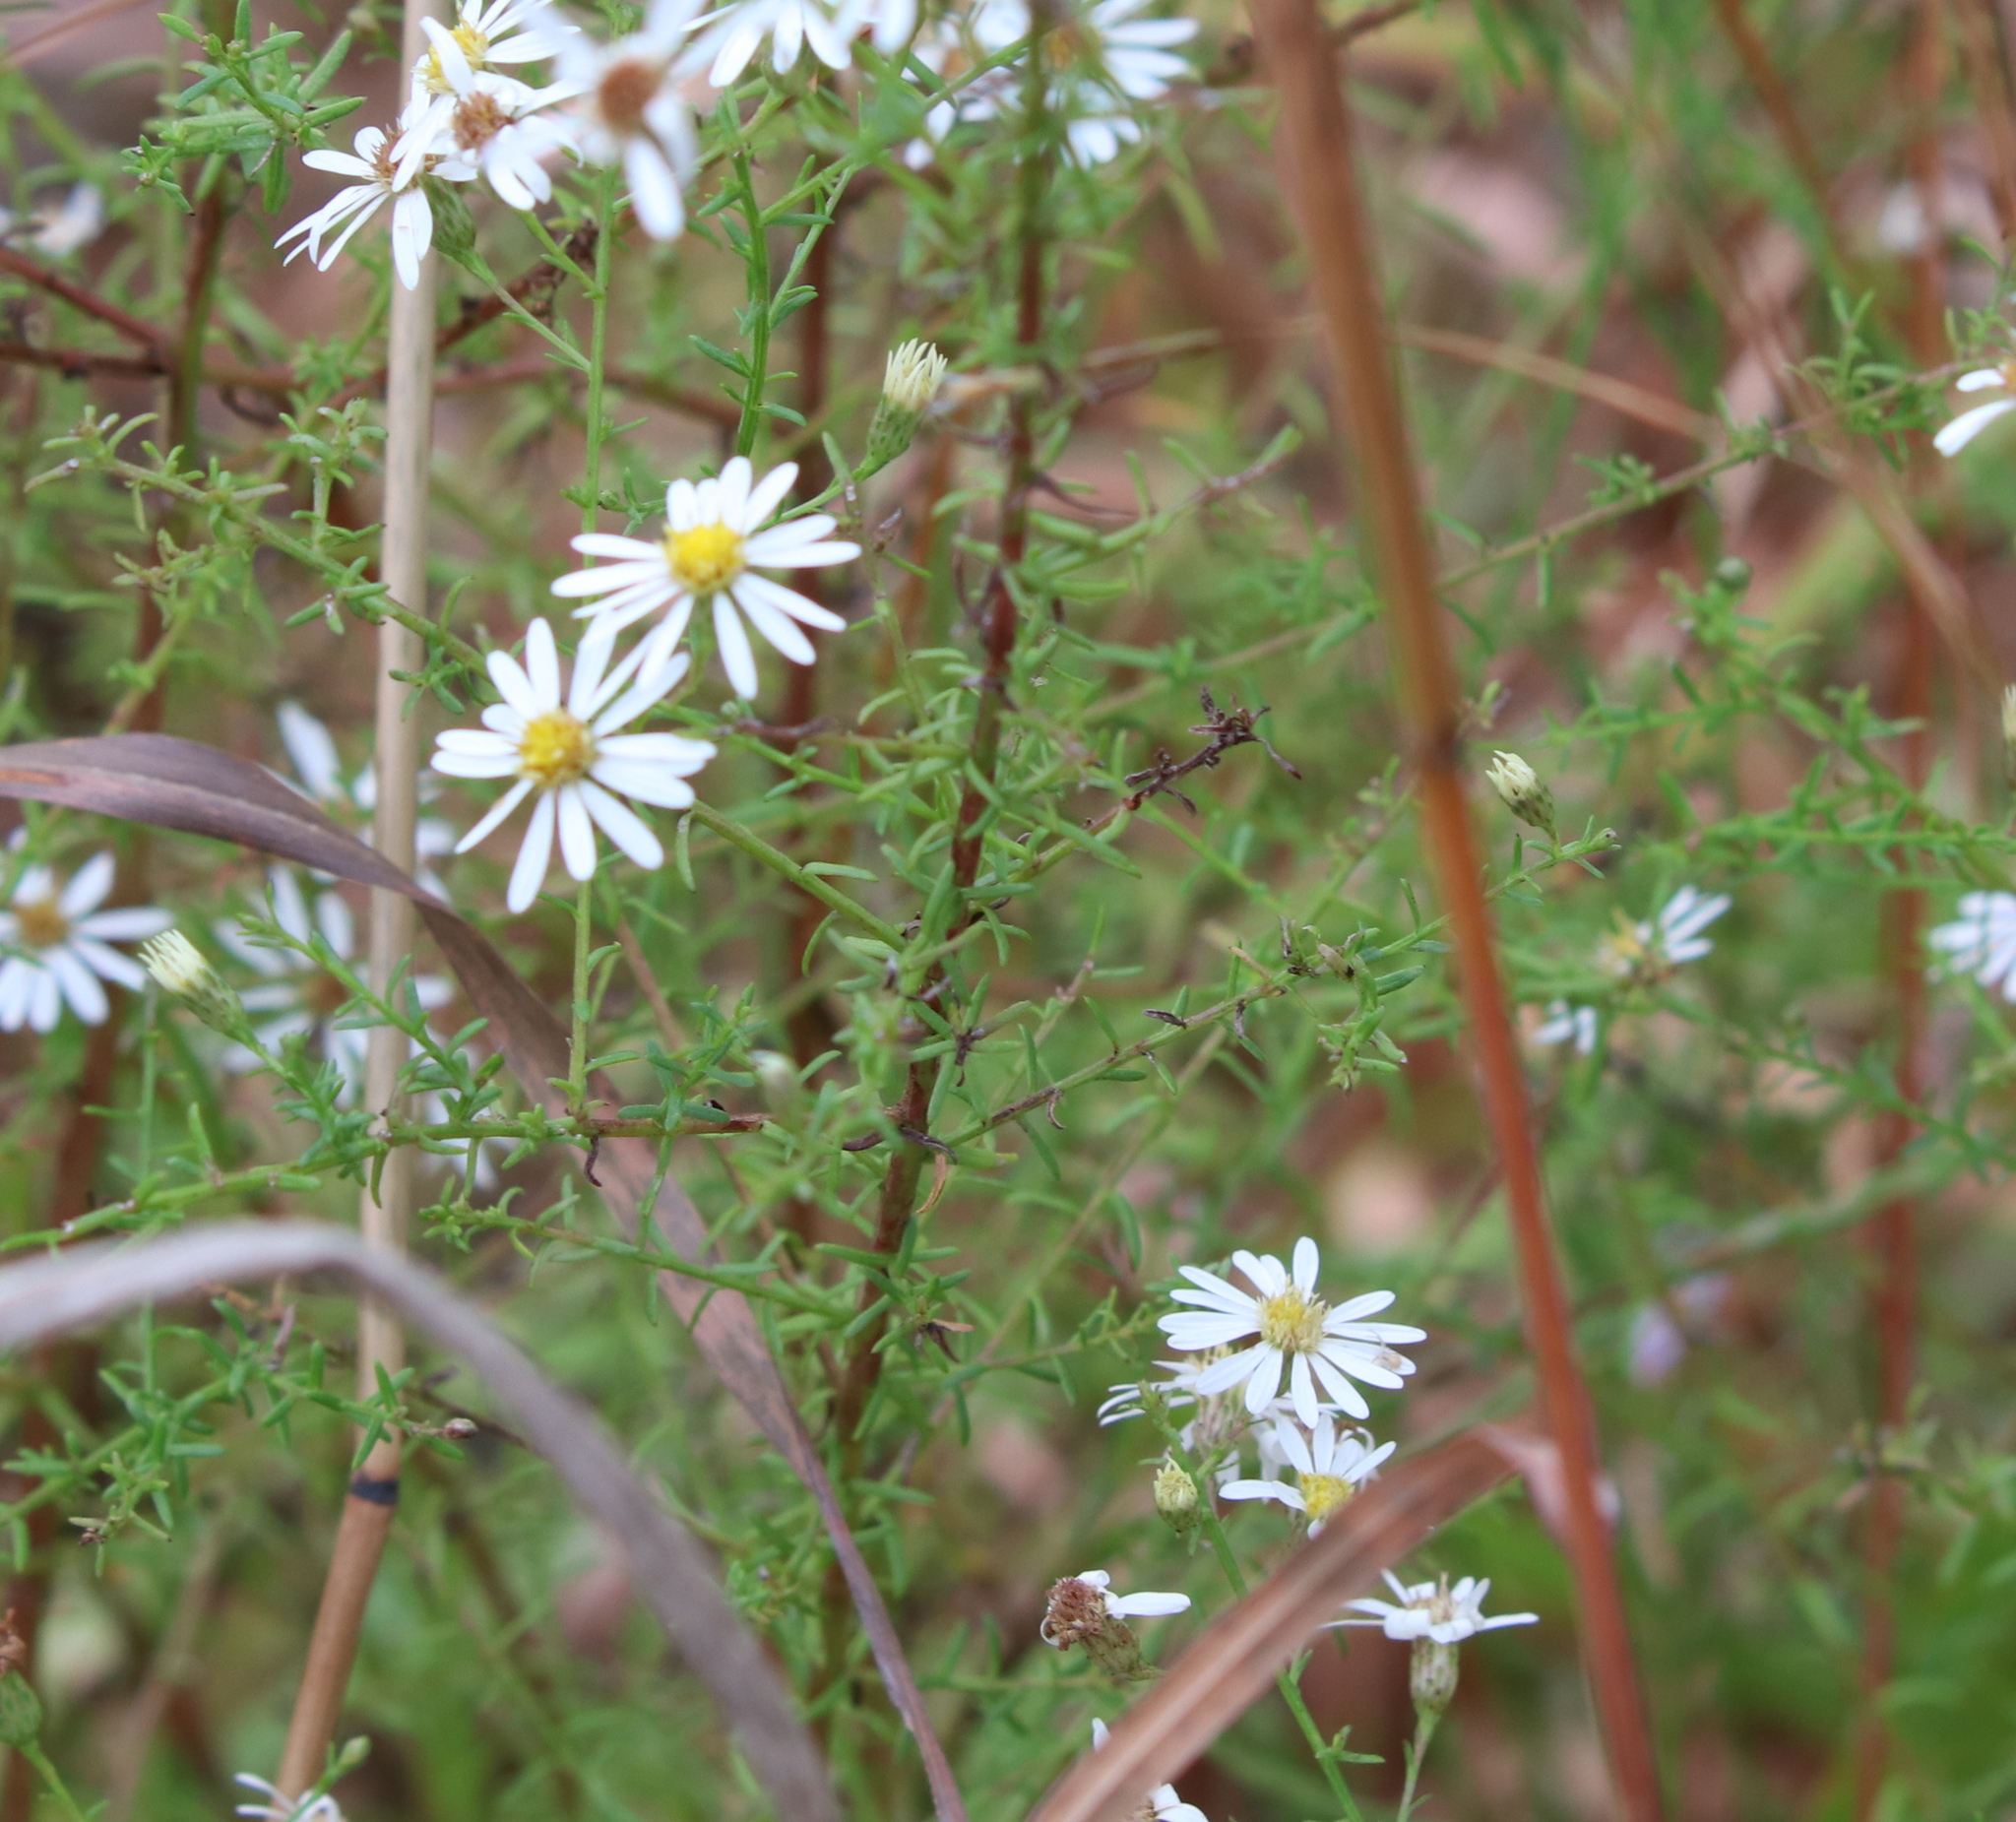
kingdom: Plantae
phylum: Tracheophyta
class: Magnoliopsida
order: Asterales
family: Asteraceae
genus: Symphyotrichum
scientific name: Symphyotrichum dumosum
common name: Bushy aster
